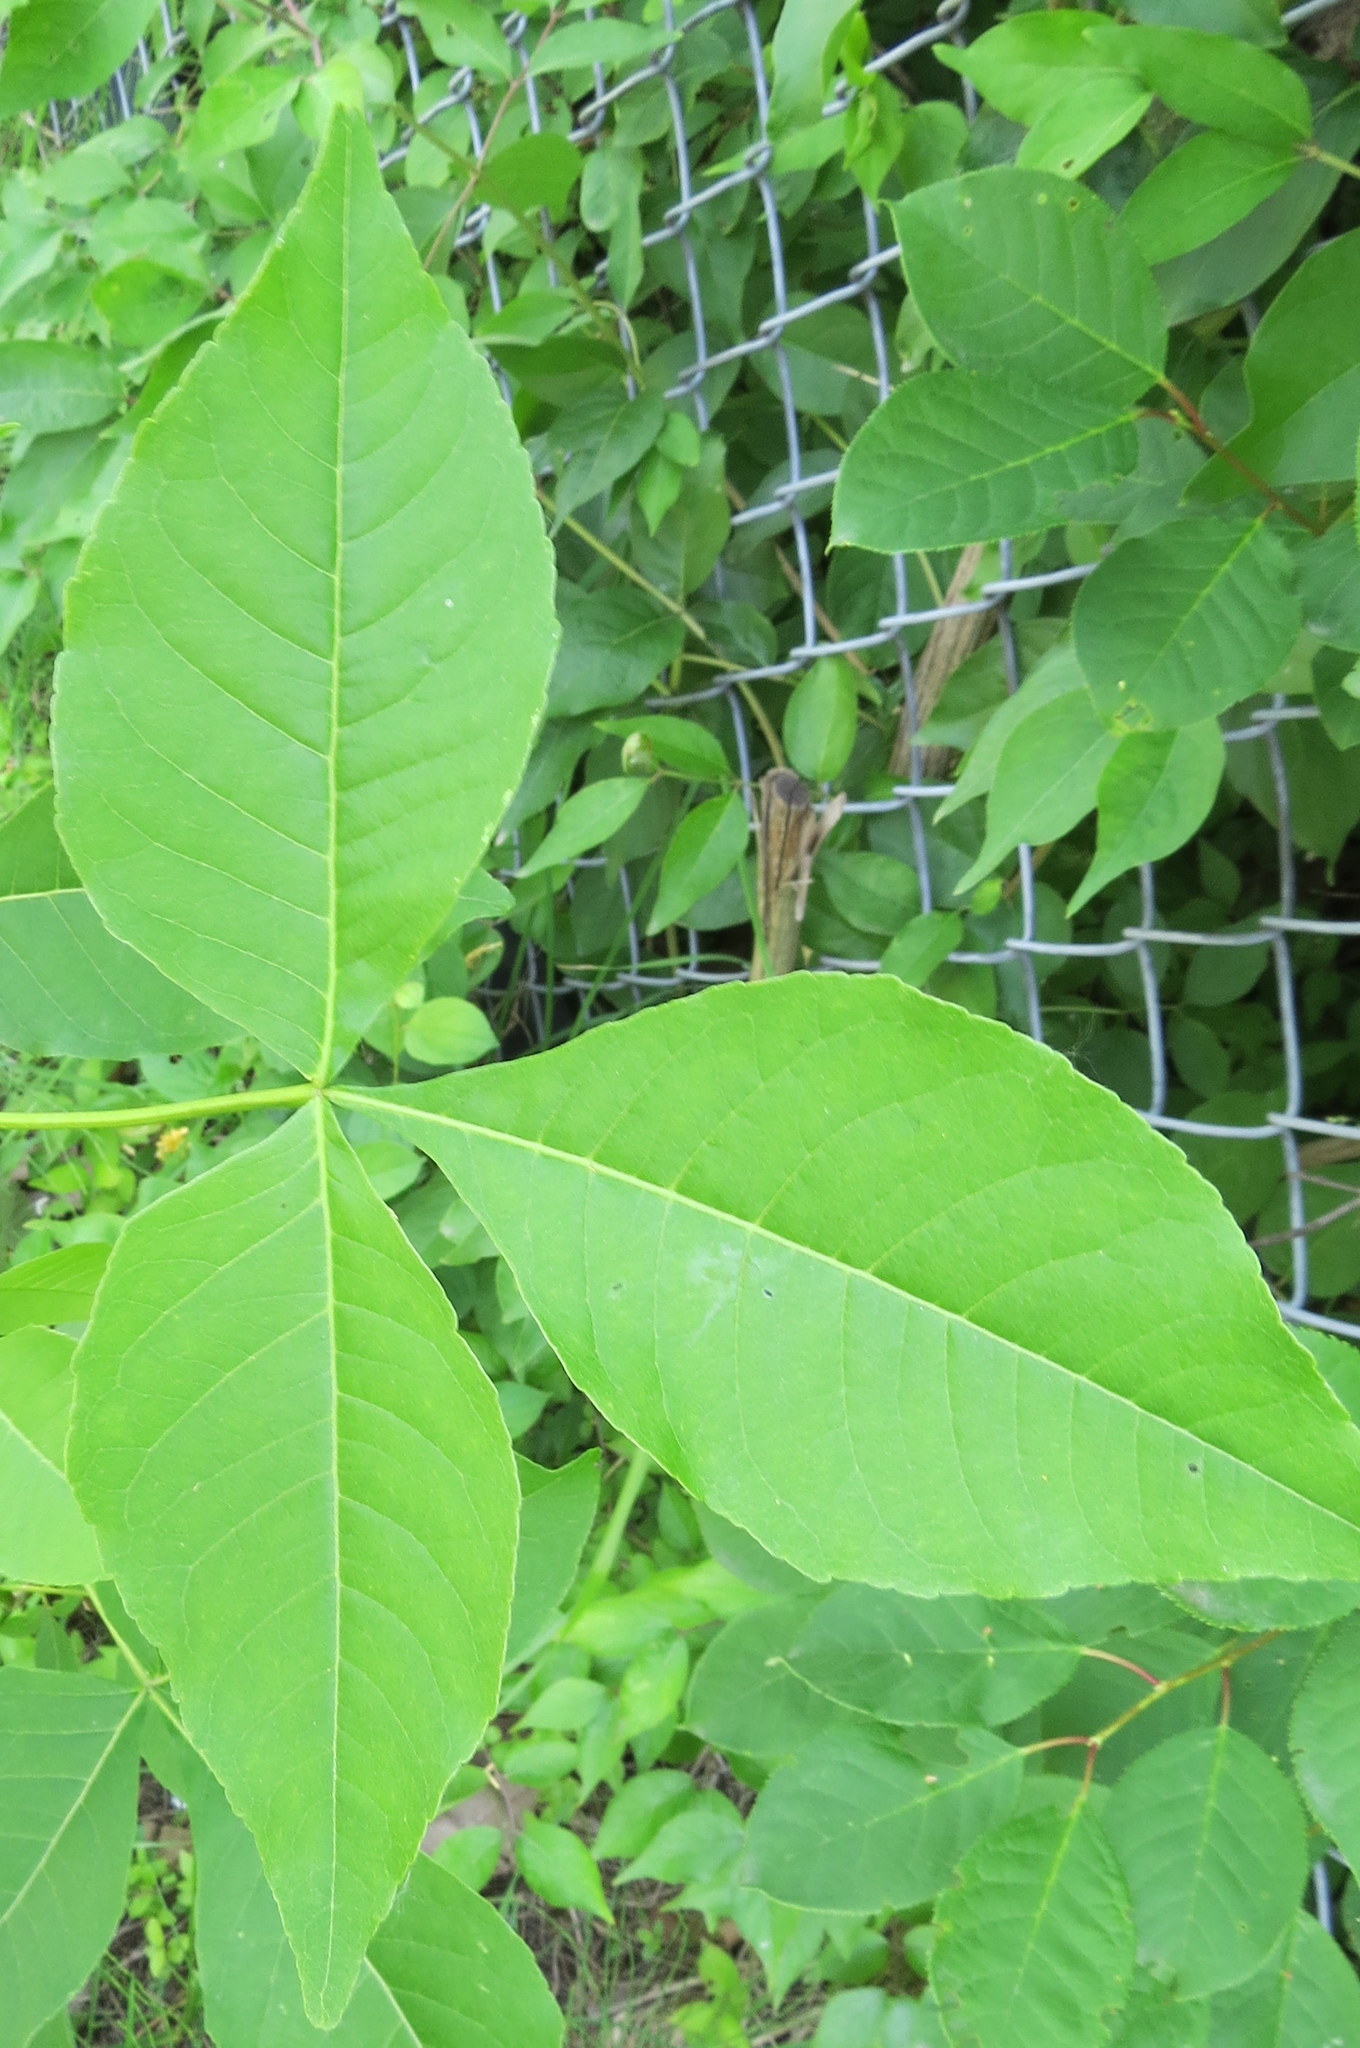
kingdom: Plantae
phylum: Tracheophyta
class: Magnoliopsida
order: Sapindales
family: Rutaceae
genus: Ptelea
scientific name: Ptelea trifoliata
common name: Common hop-tree
